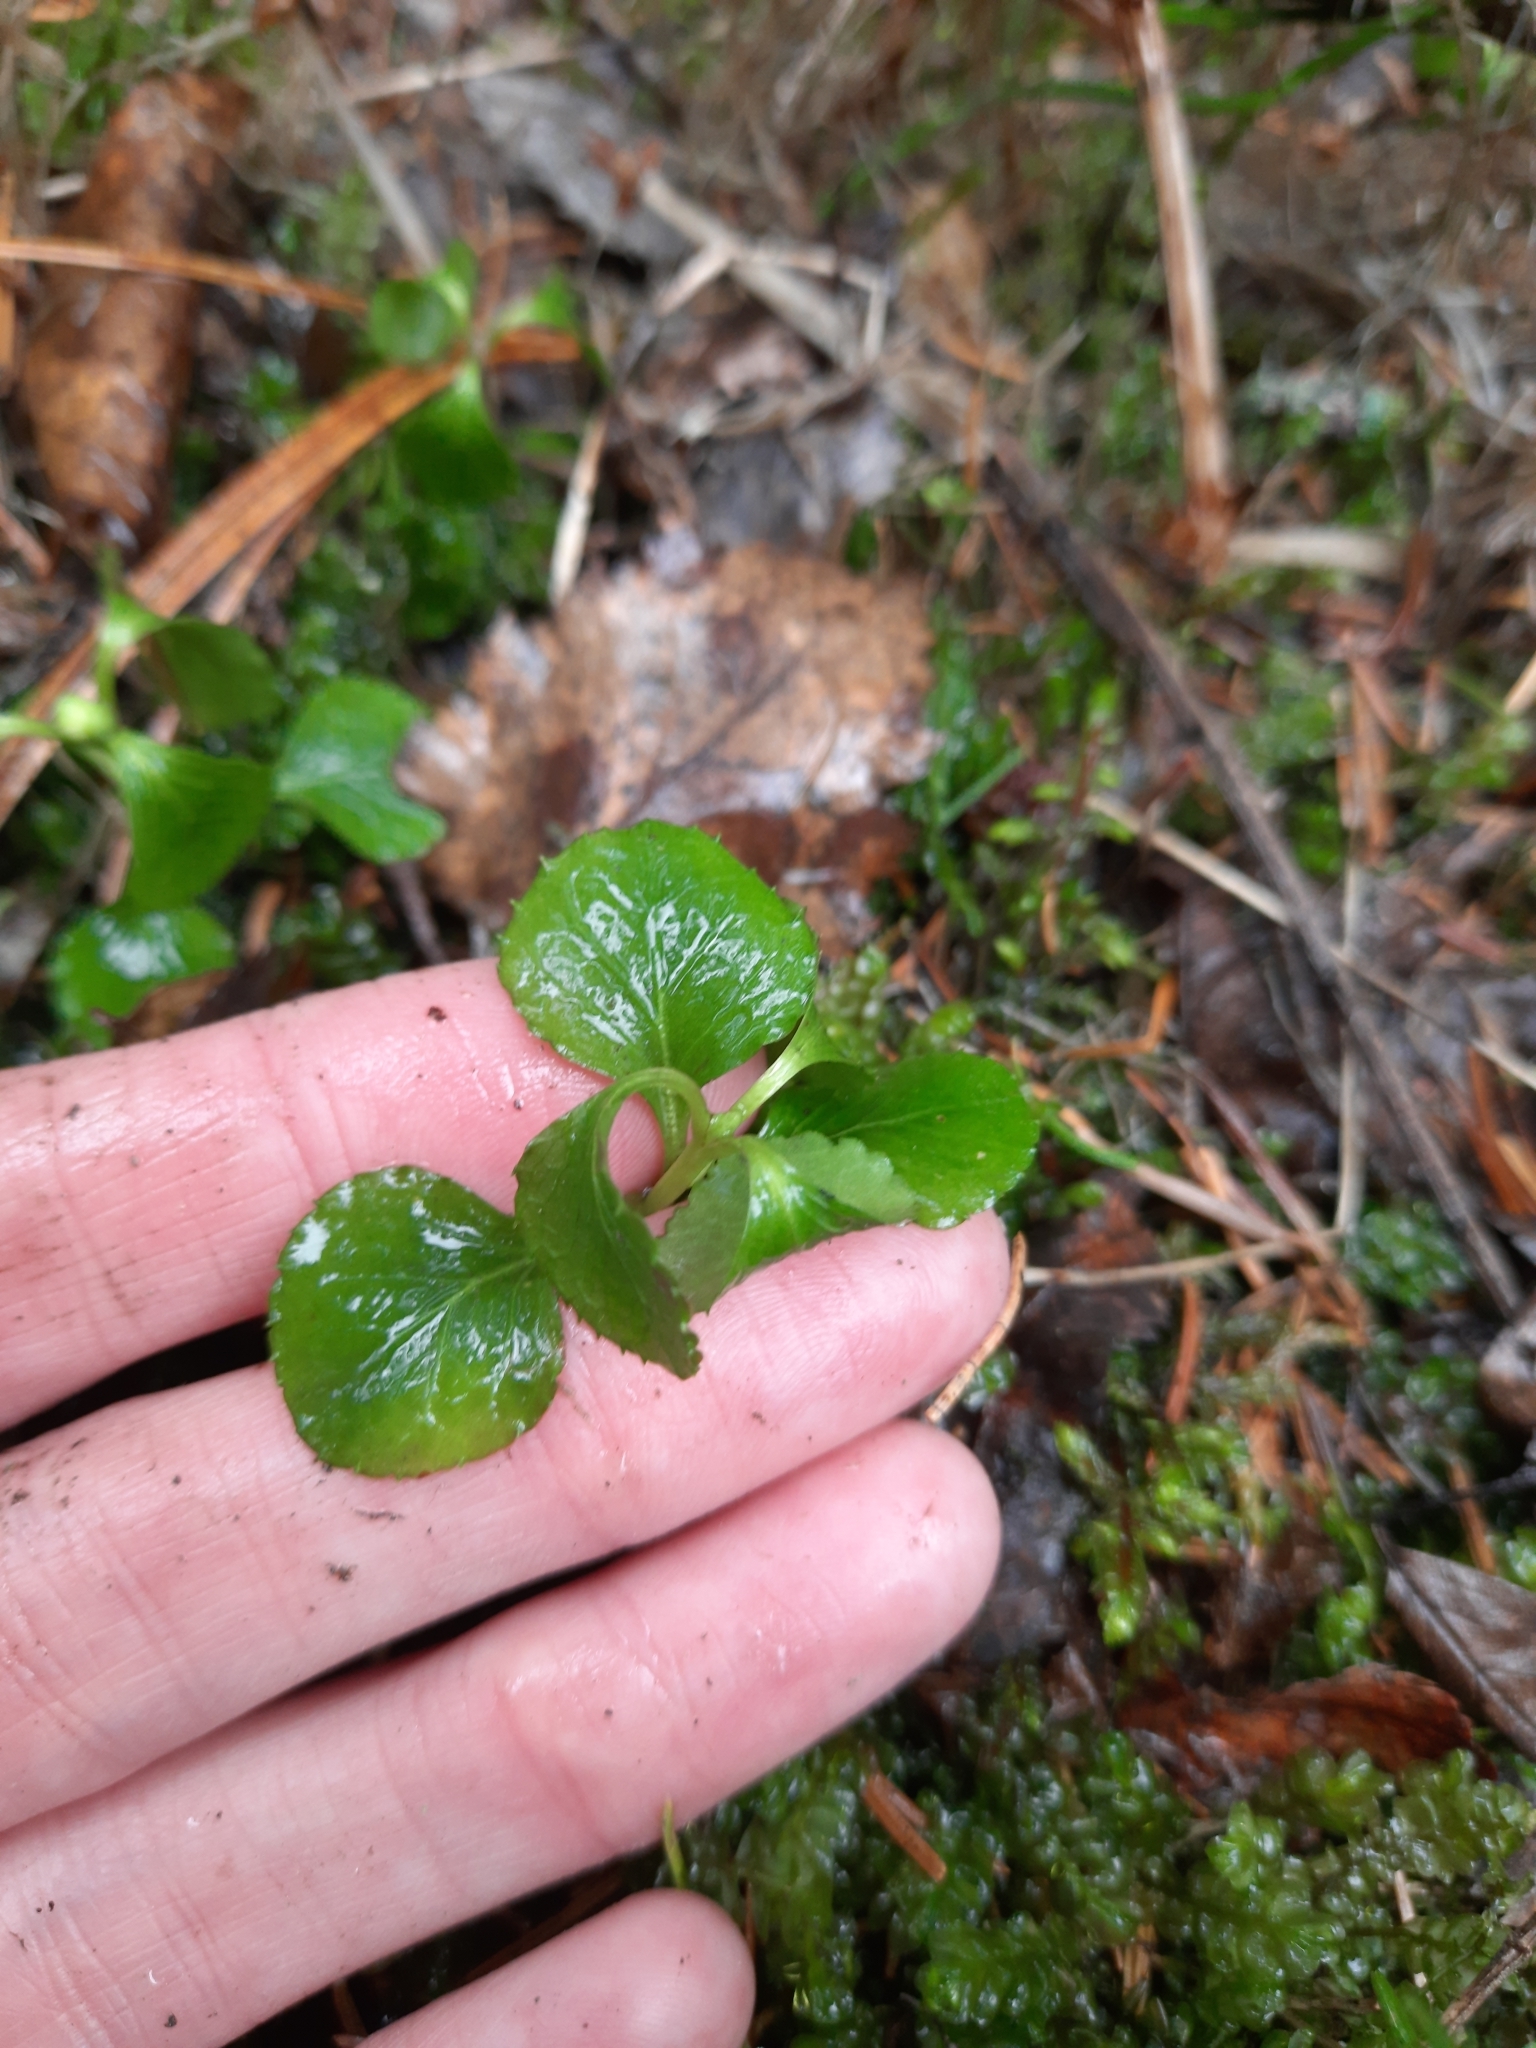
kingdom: Plantae
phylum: Tracheophyta
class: Magnoliopsida
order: Ericales
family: Ericaceae
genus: Moneses
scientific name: Moneses uniflora
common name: One-flowered wintergreen
